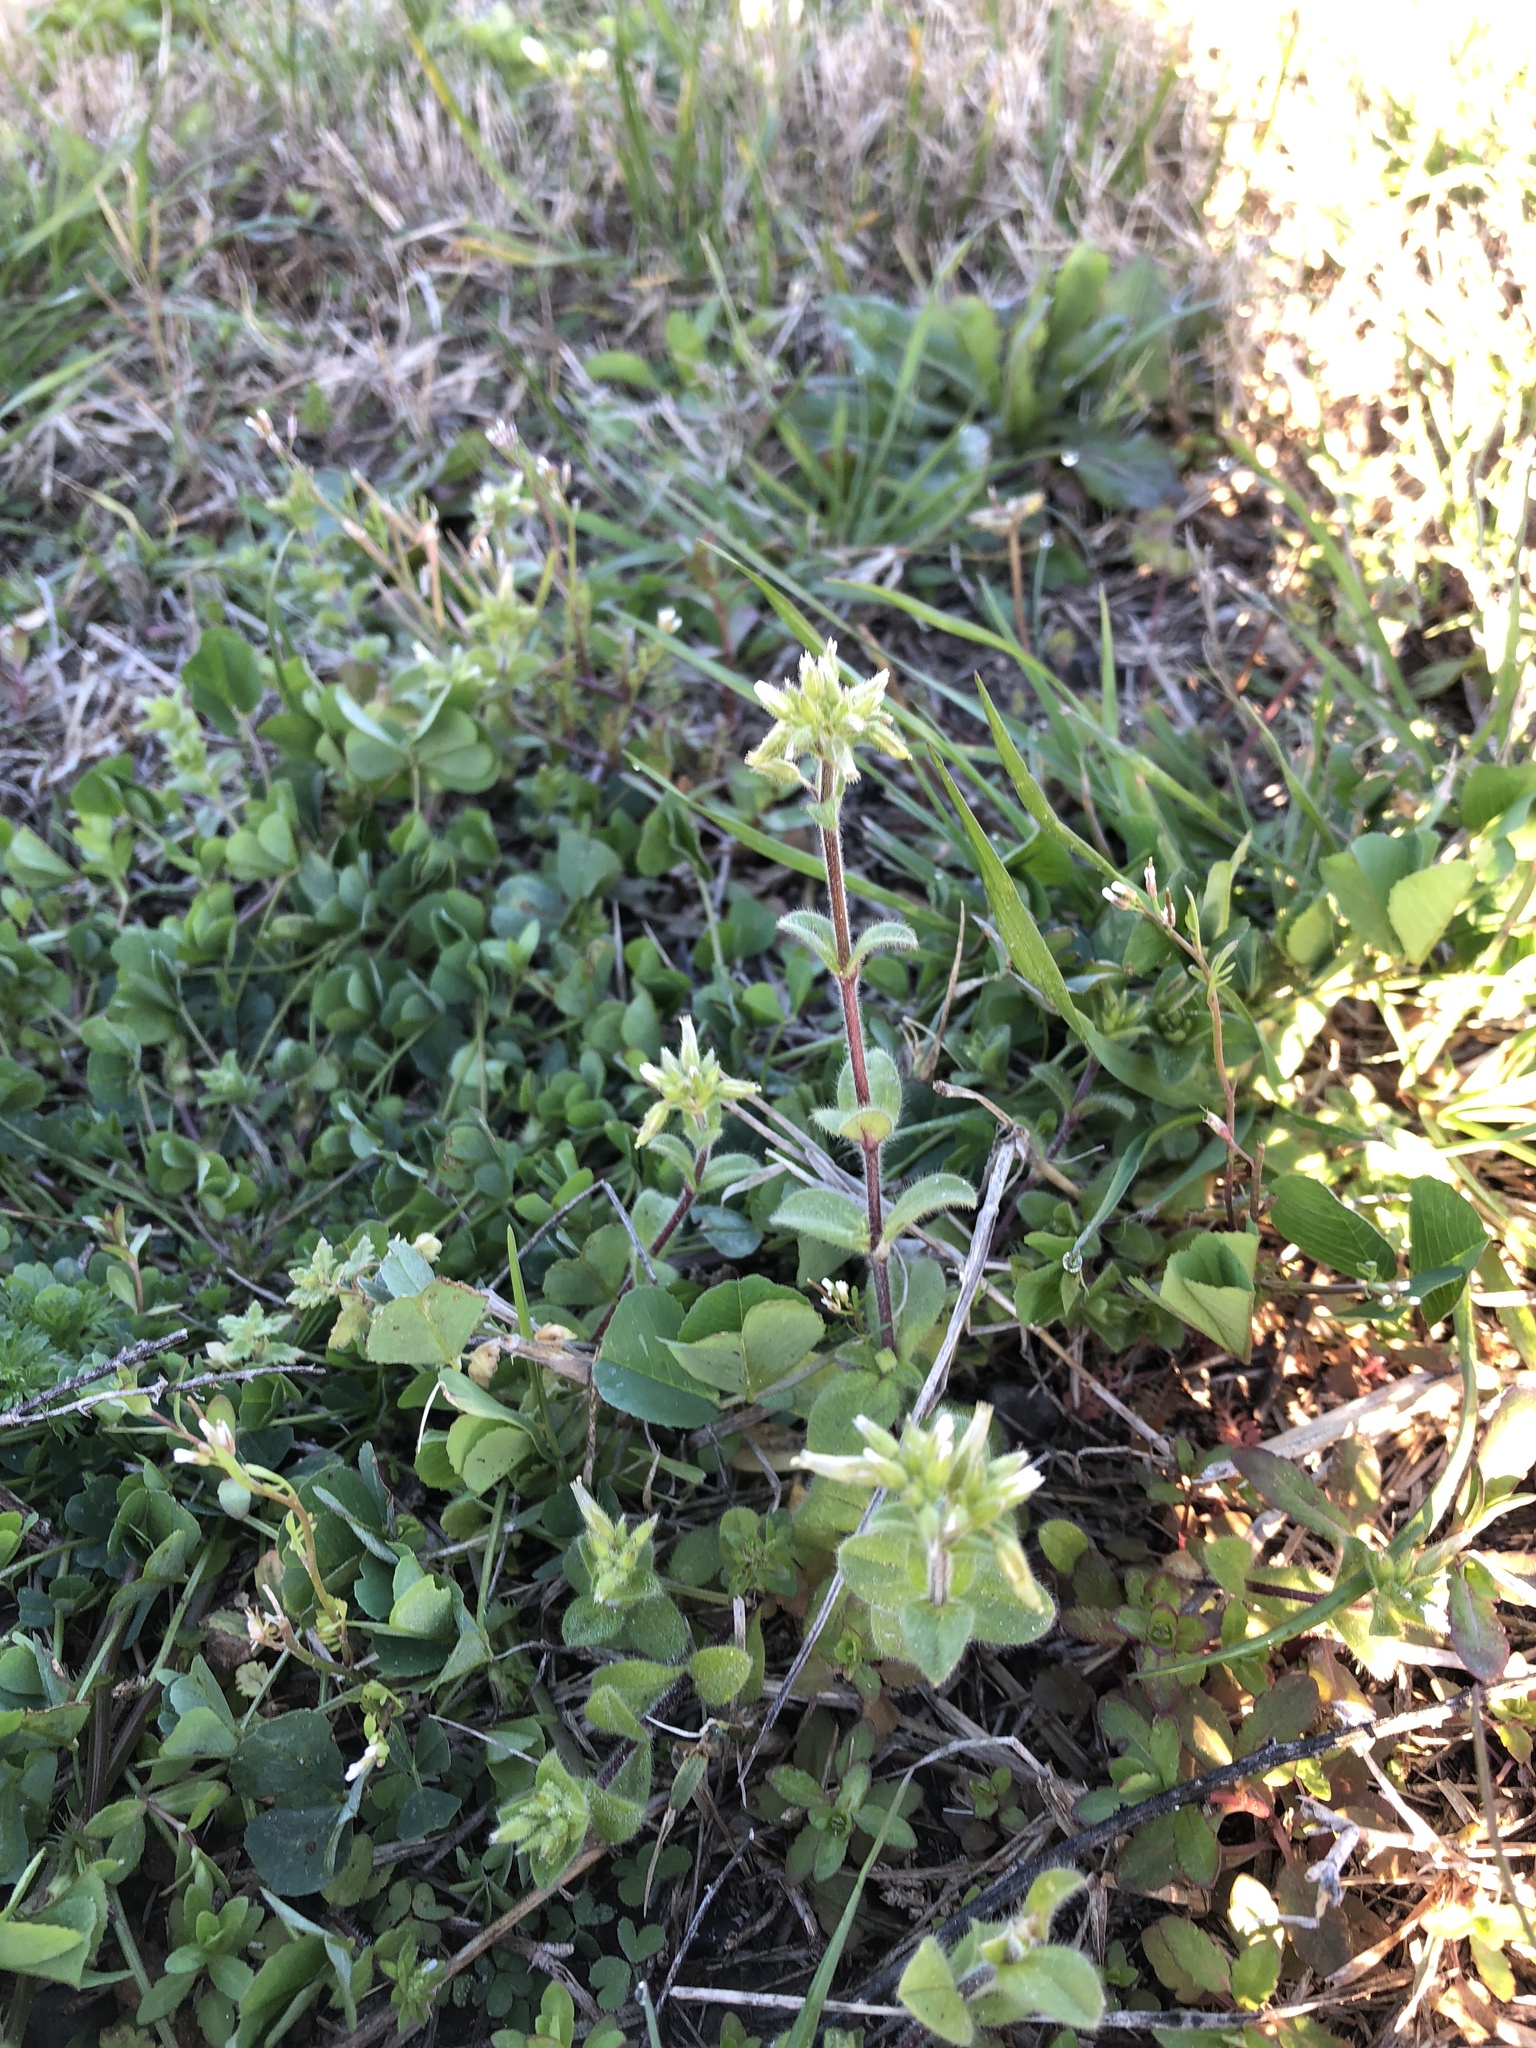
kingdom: Plantae
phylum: Tracheophyta
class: Magnoliopsida
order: Caryophyllales
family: Caryophyllaceae
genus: Cerastium
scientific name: Cerastium glomeratum
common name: Sticky chickweed
